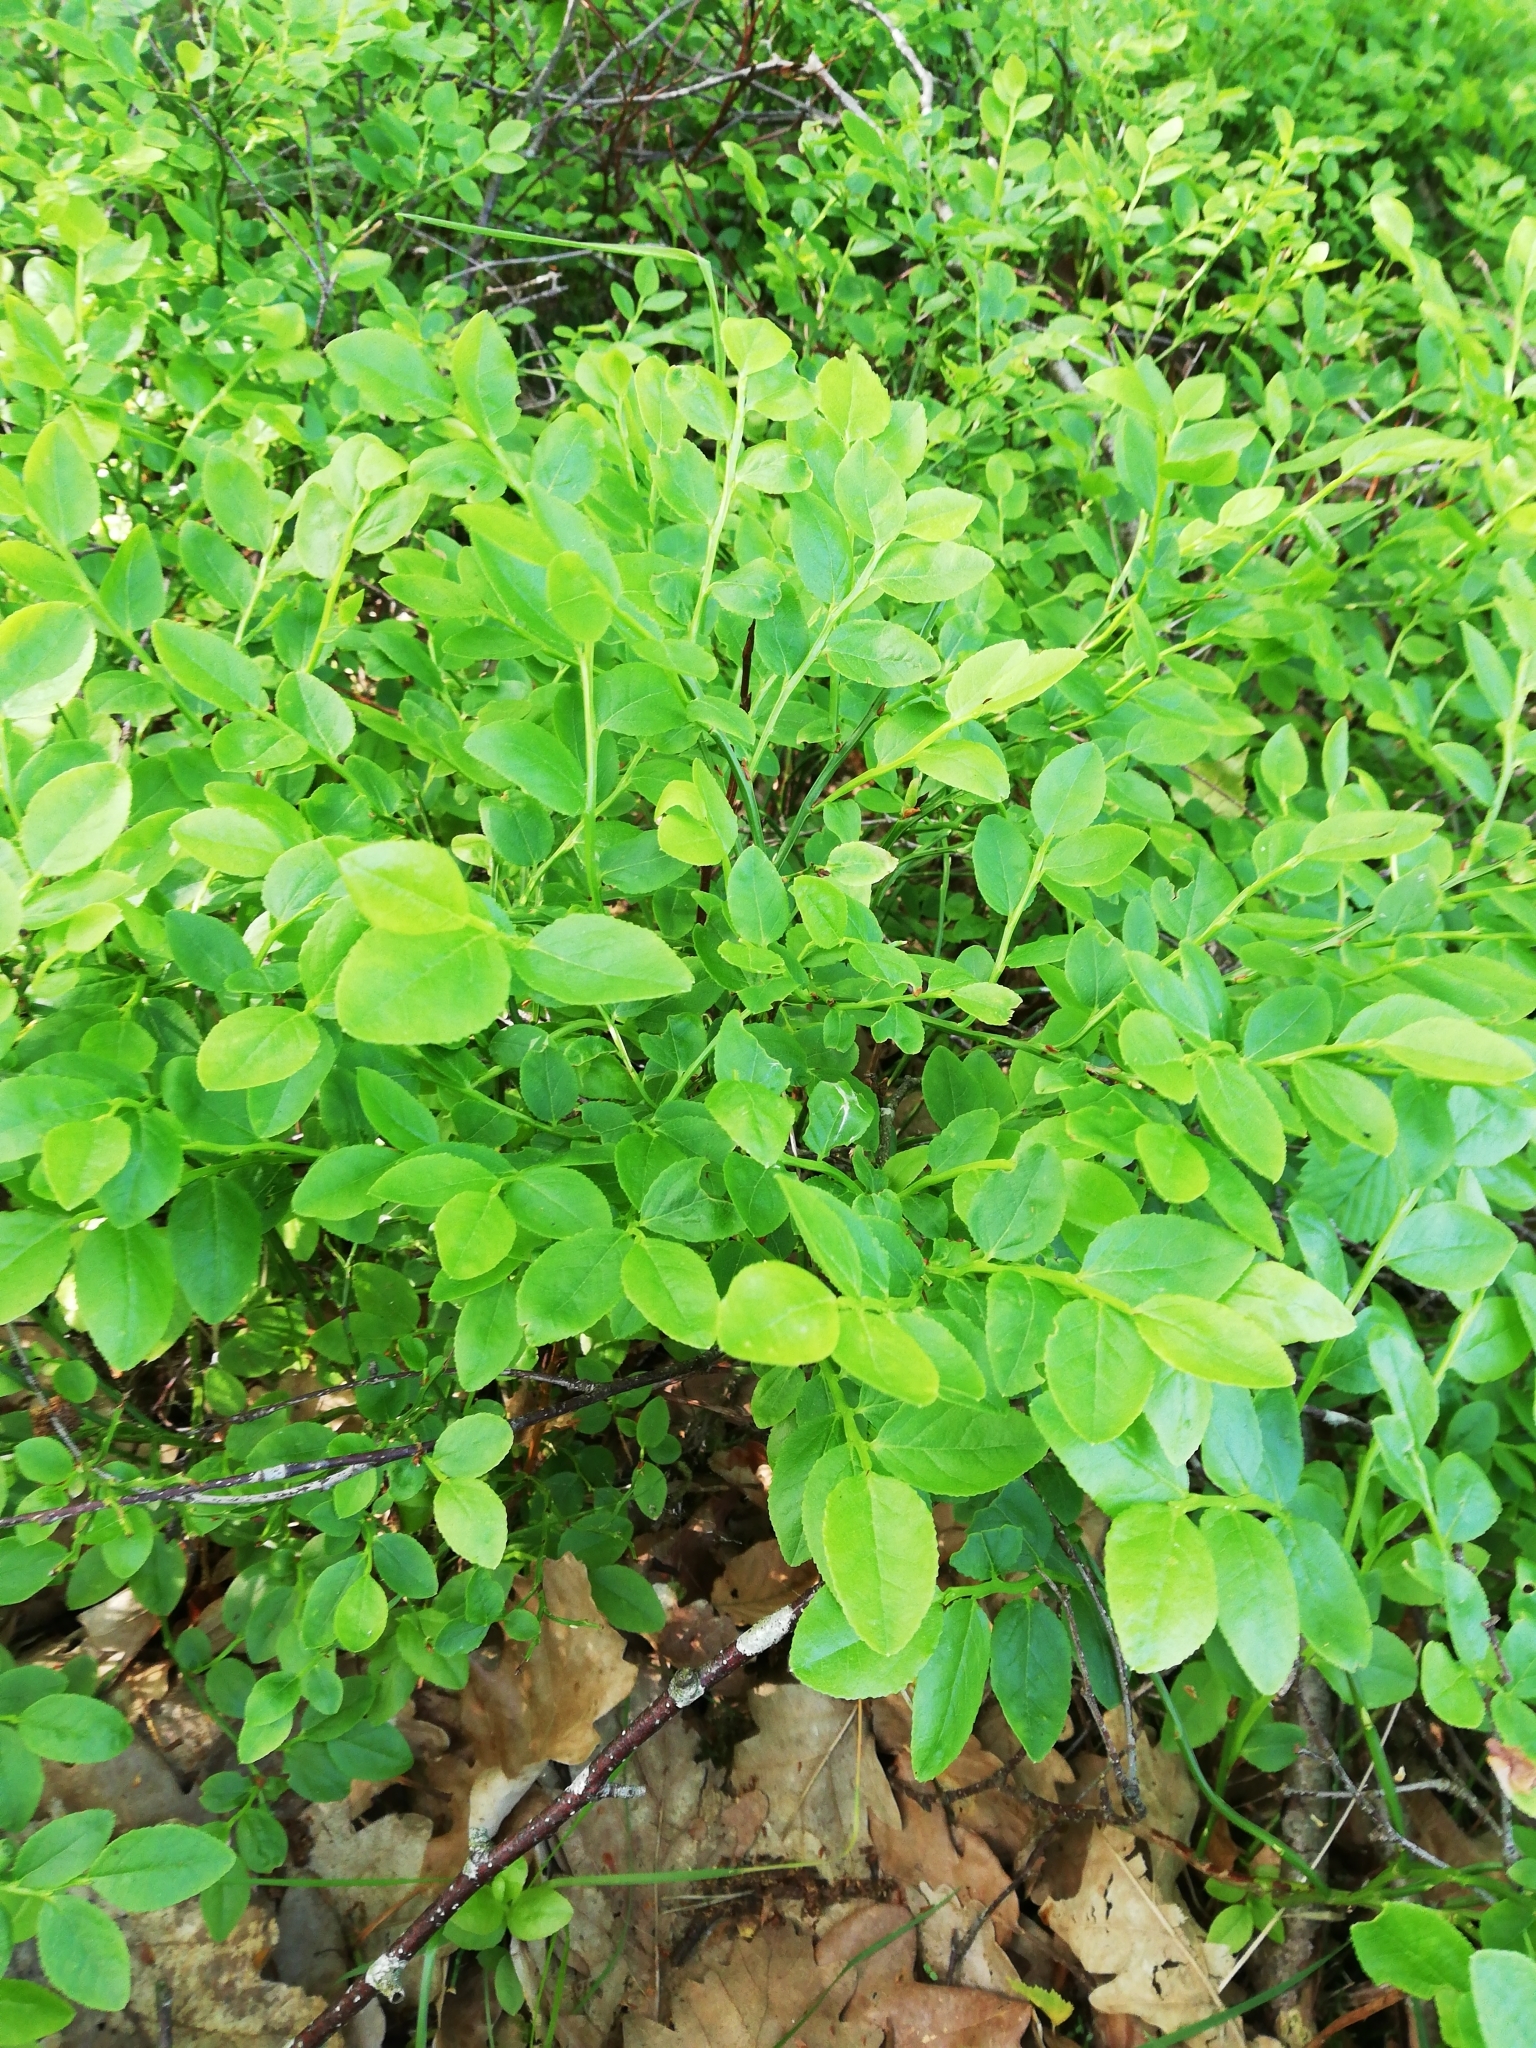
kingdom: Plantae
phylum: Tracheophyta
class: Magnoliopsida
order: Ericales
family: Ericaceae
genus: Vaccinium
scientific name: Vaccinium myrtillus
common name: Bilberry
